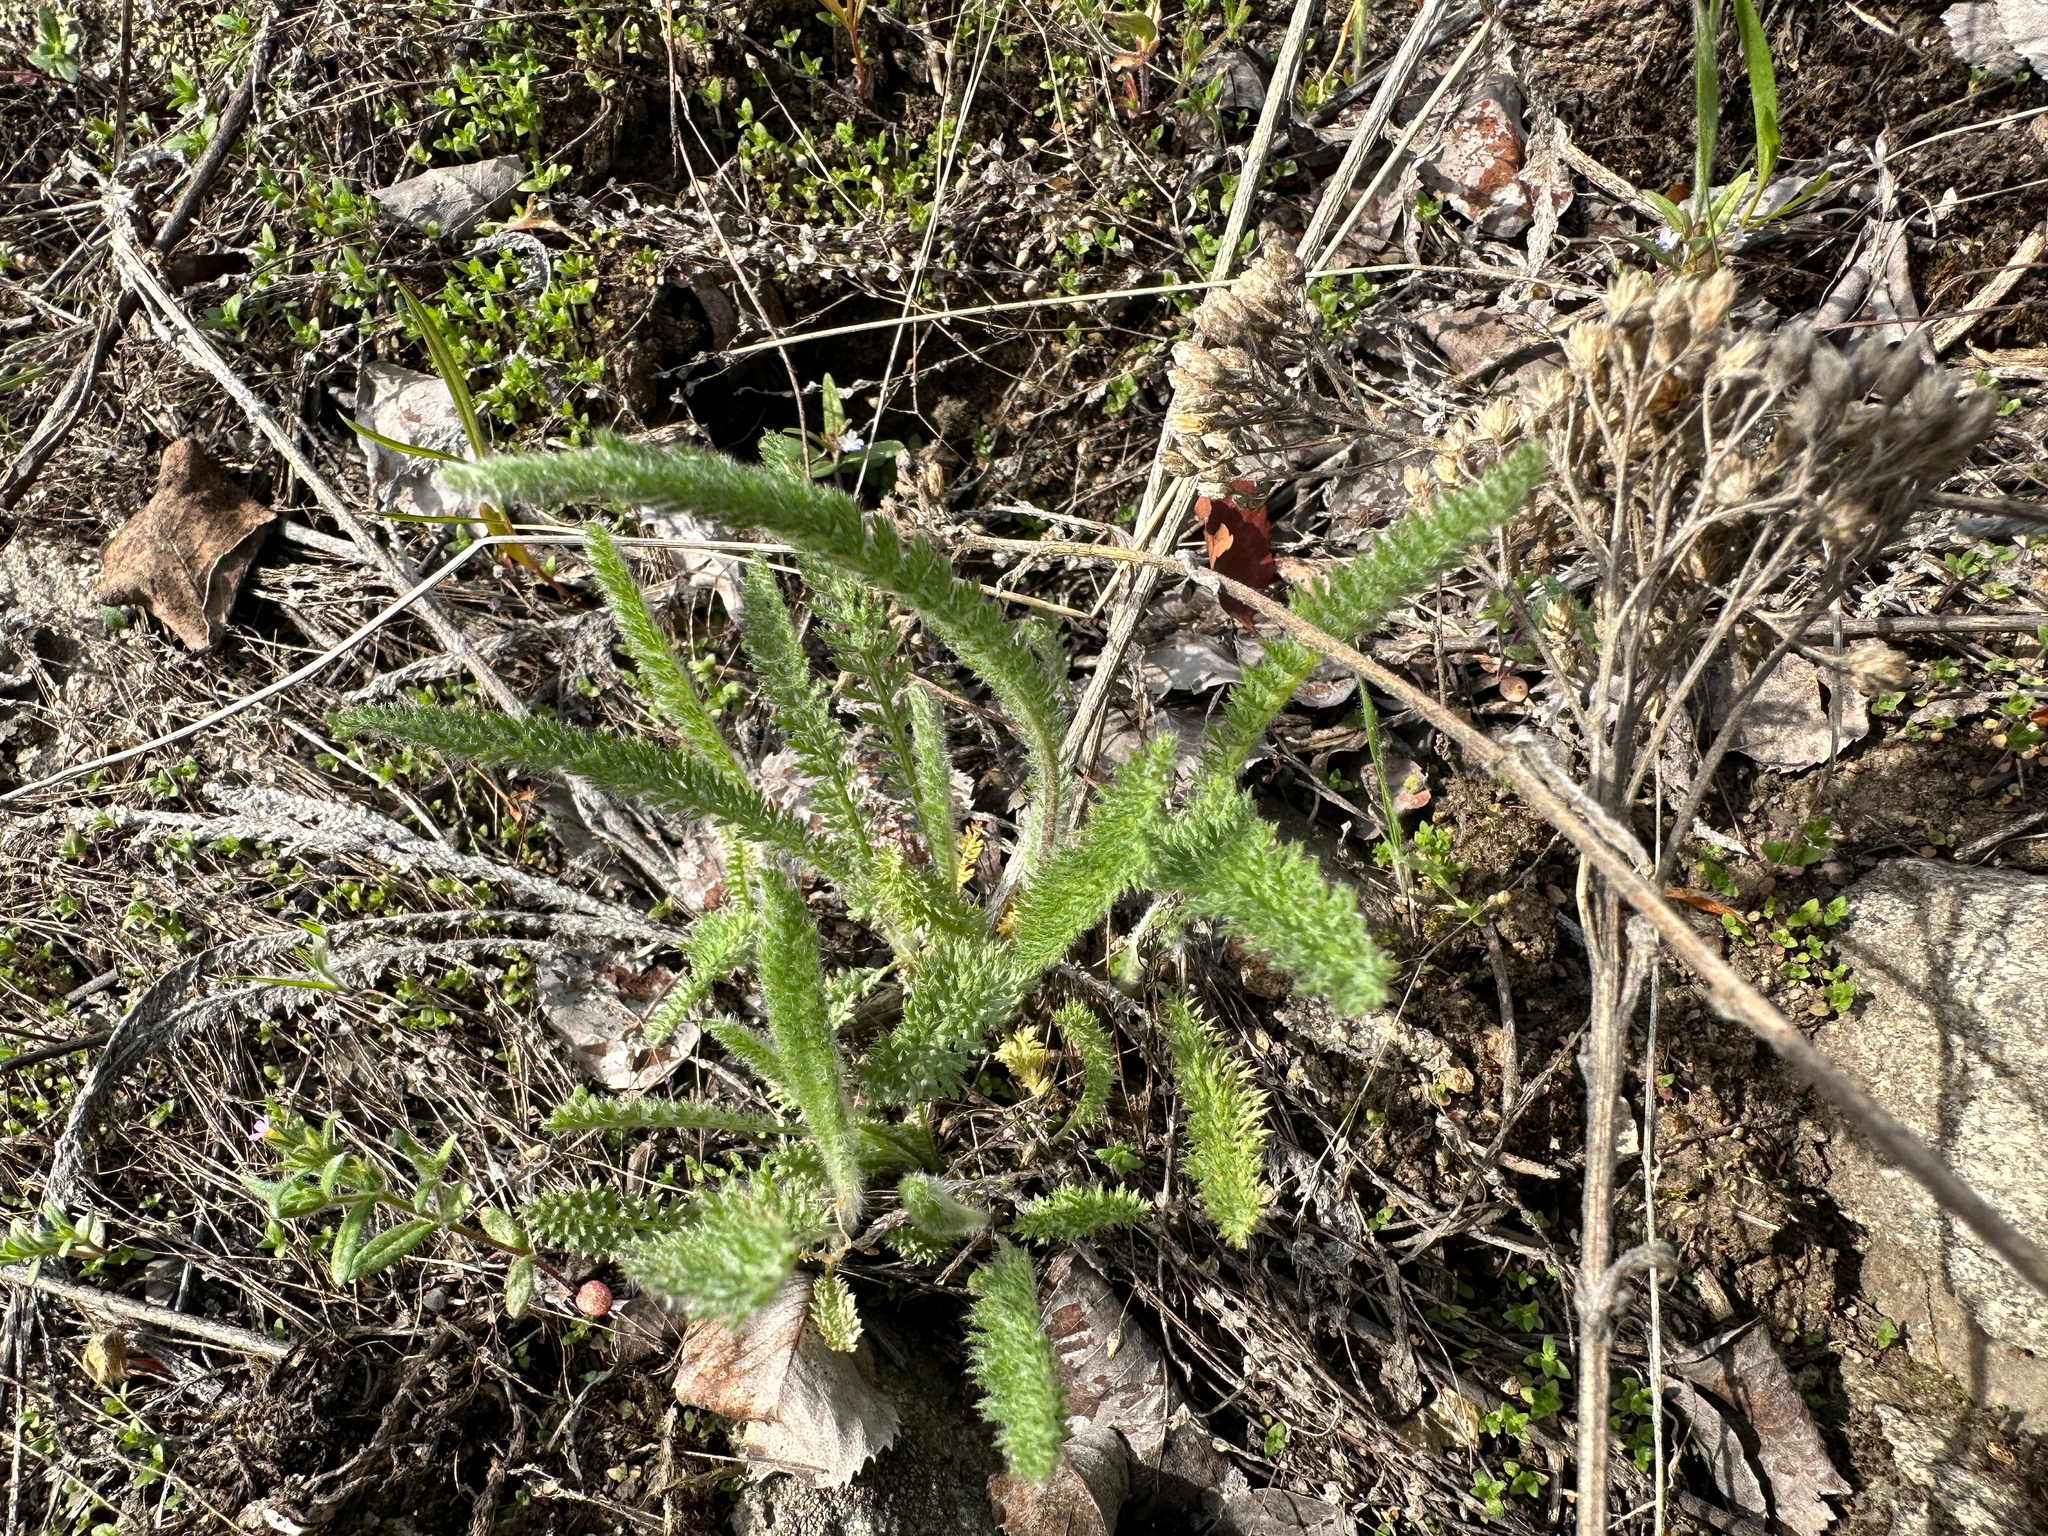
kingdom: Plantae
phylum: Tracheophyta
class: Magnoliopsida
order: Asterales
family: Asteraceae
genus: Achillea
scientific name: Achillea millefolium
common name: Yarrow
